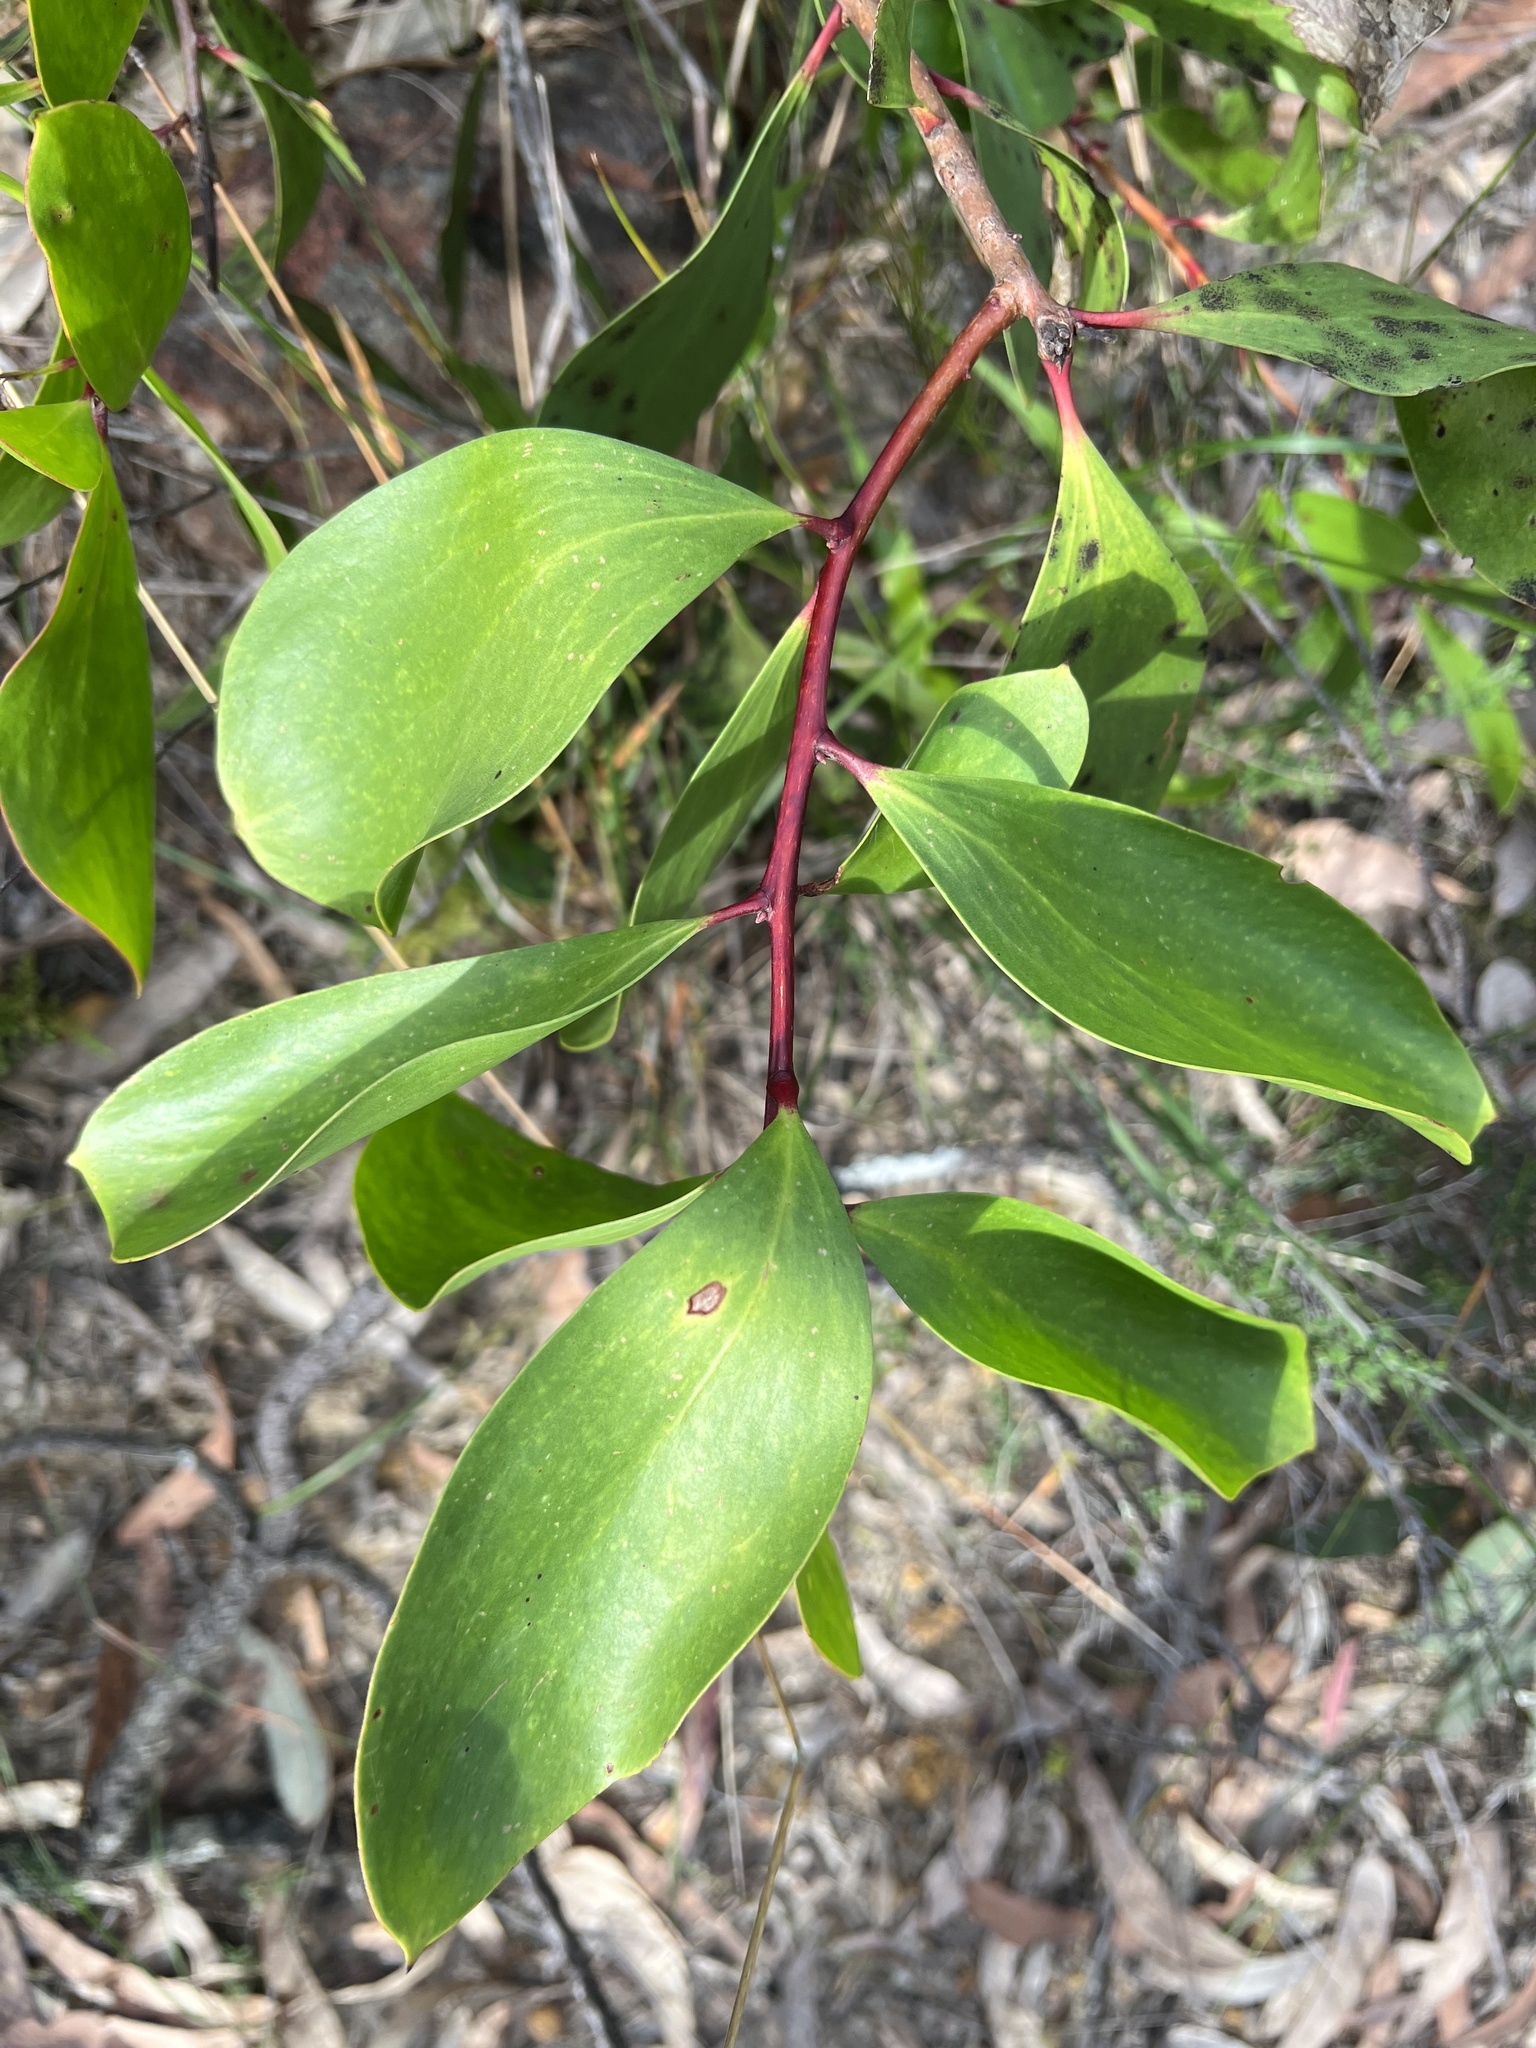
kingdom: Plantae
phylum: Tracheophyta
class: Magnoliopsida
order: Proteales
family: Proteaceae
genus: Persoonia
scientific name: Persoonia levis
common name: Smooth geebung
